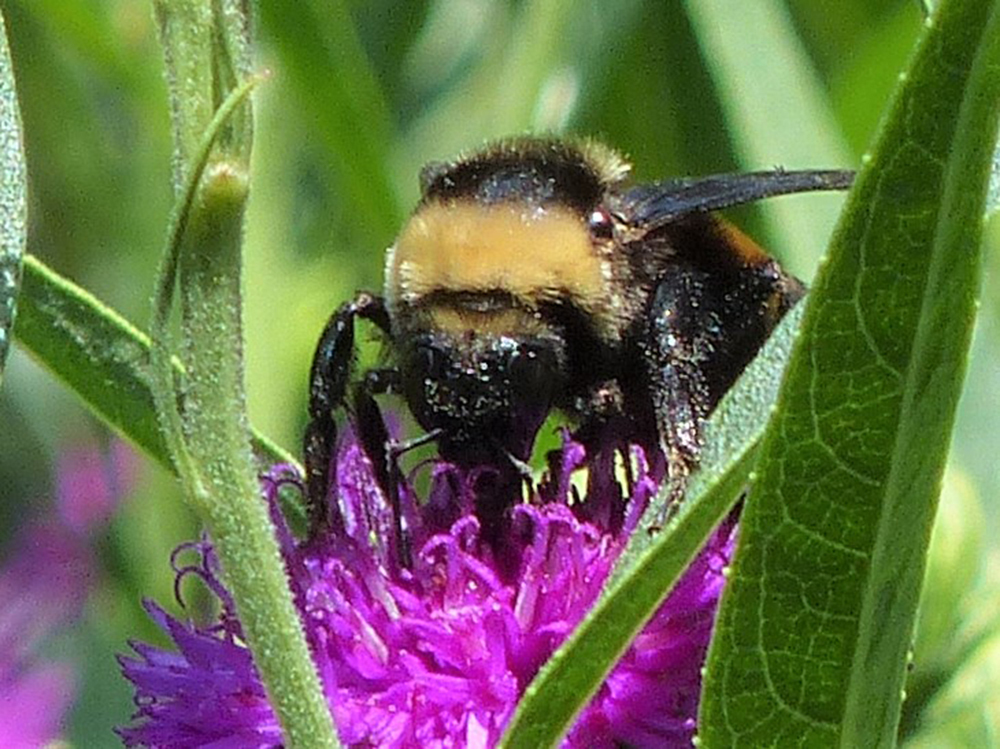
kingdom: Animalia
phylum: Arthropoda
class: Insecta
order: Hymenoptera
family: Apidae
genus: Bombus
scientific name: Bombus auricomus
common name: Black and gold bumble bee
